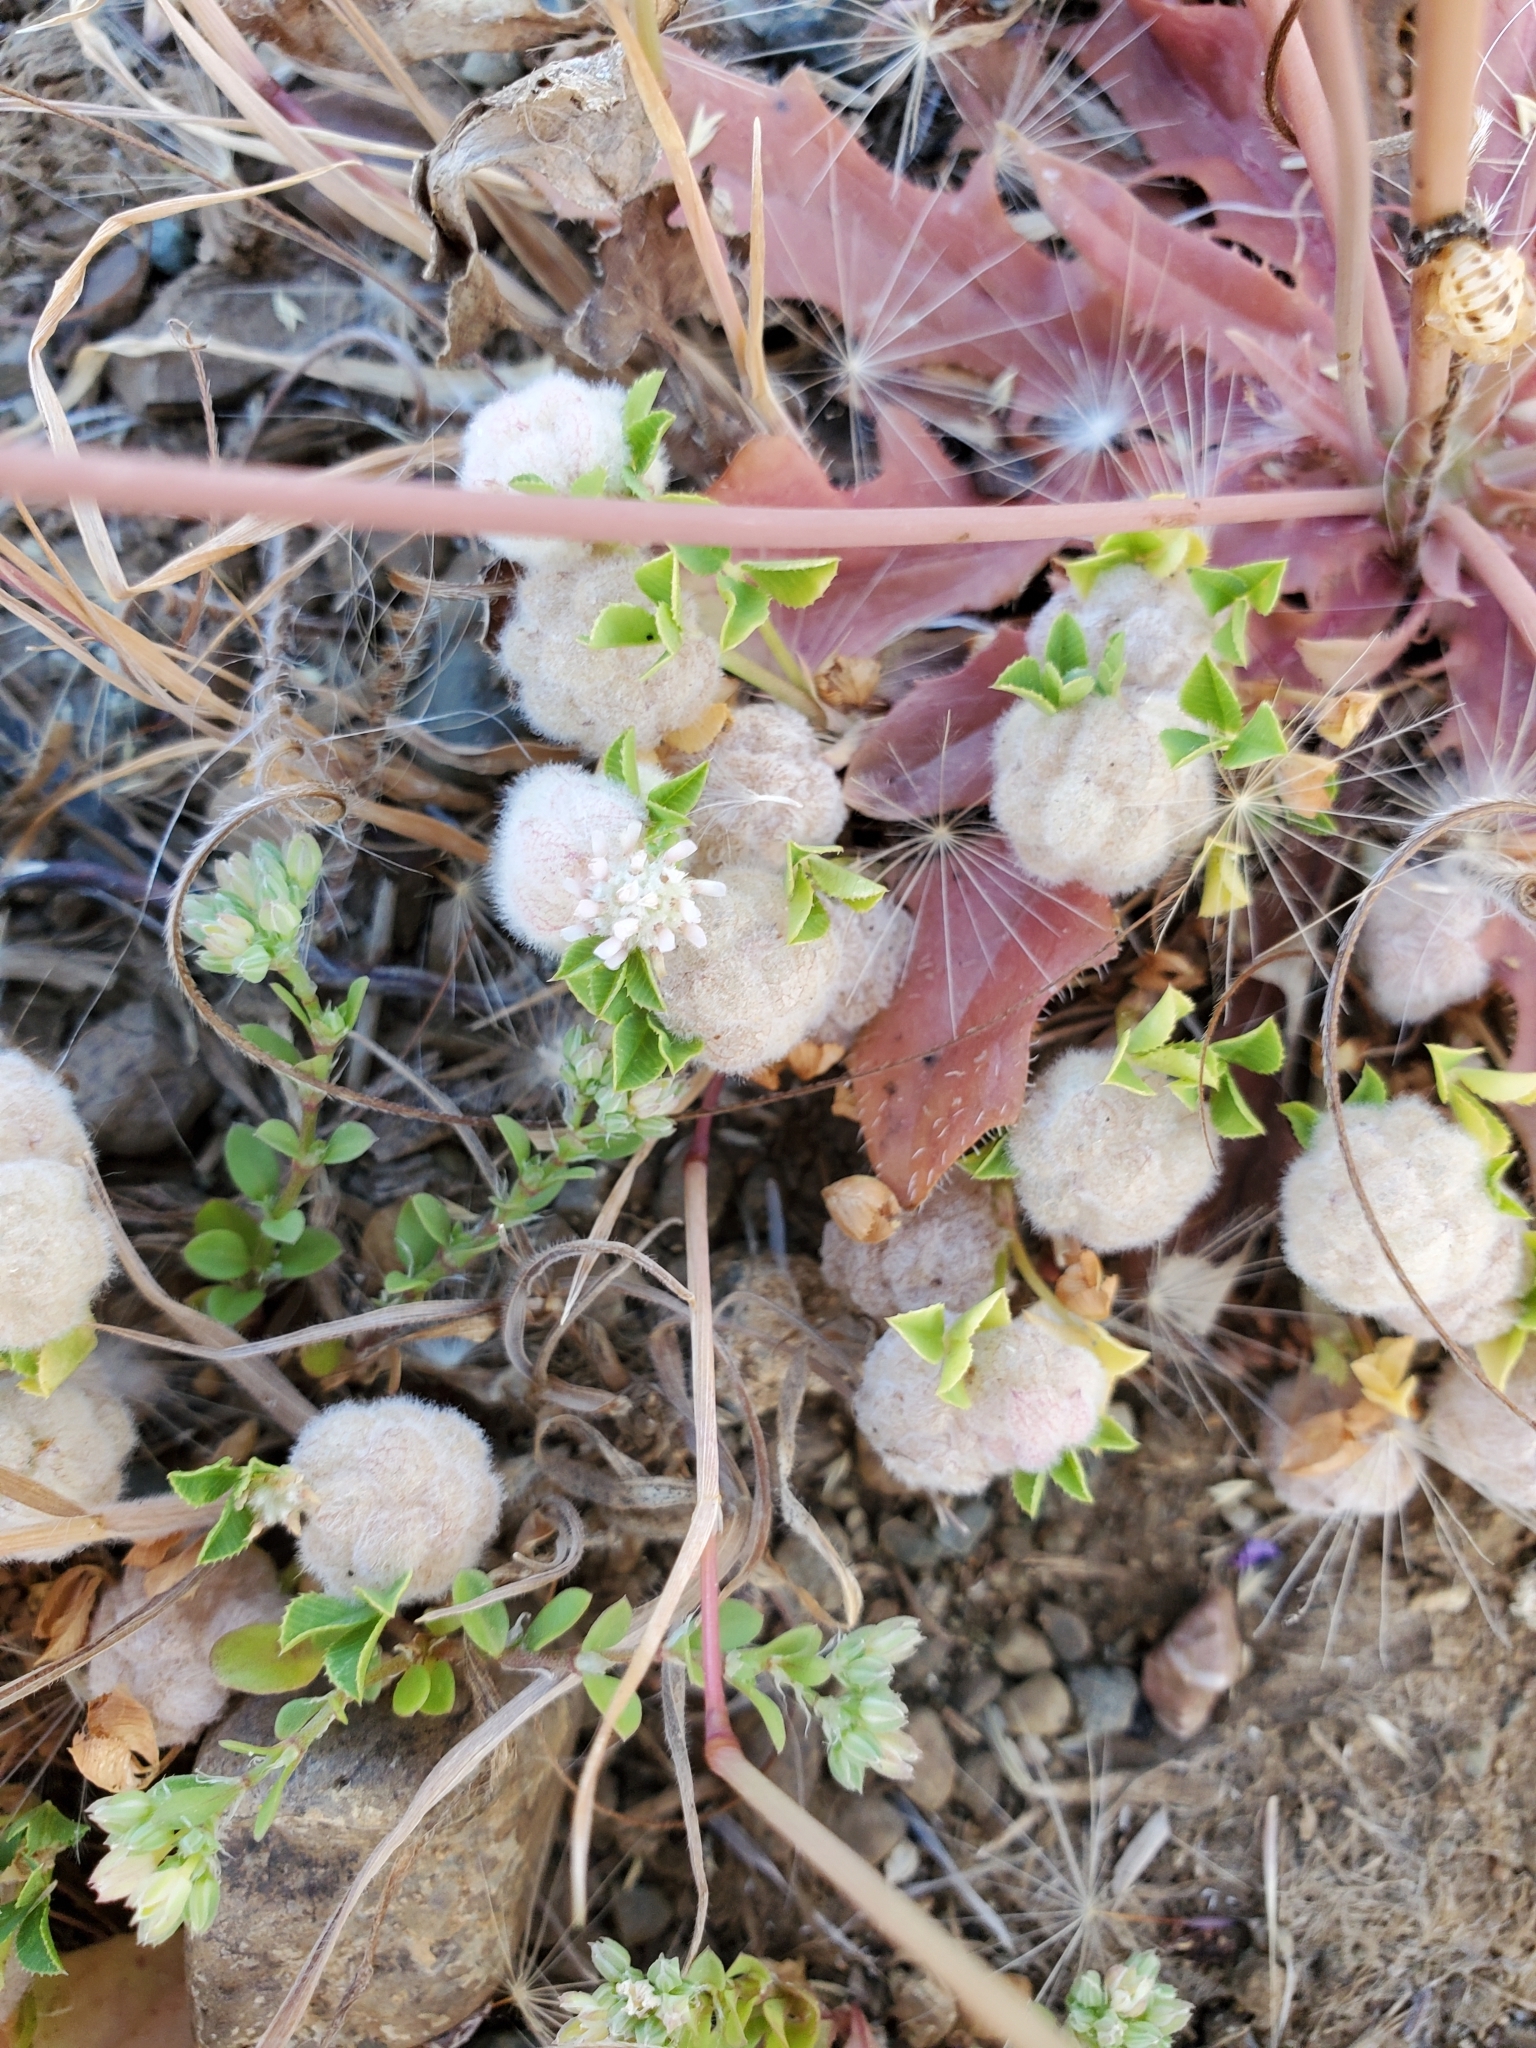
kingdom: Plantae
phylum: Tracheophyta
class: Magnoliopsida
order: Fabales
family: Fabaceae
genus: Trifolium
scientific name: Trifolium tomentosum
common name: Woolly clover
